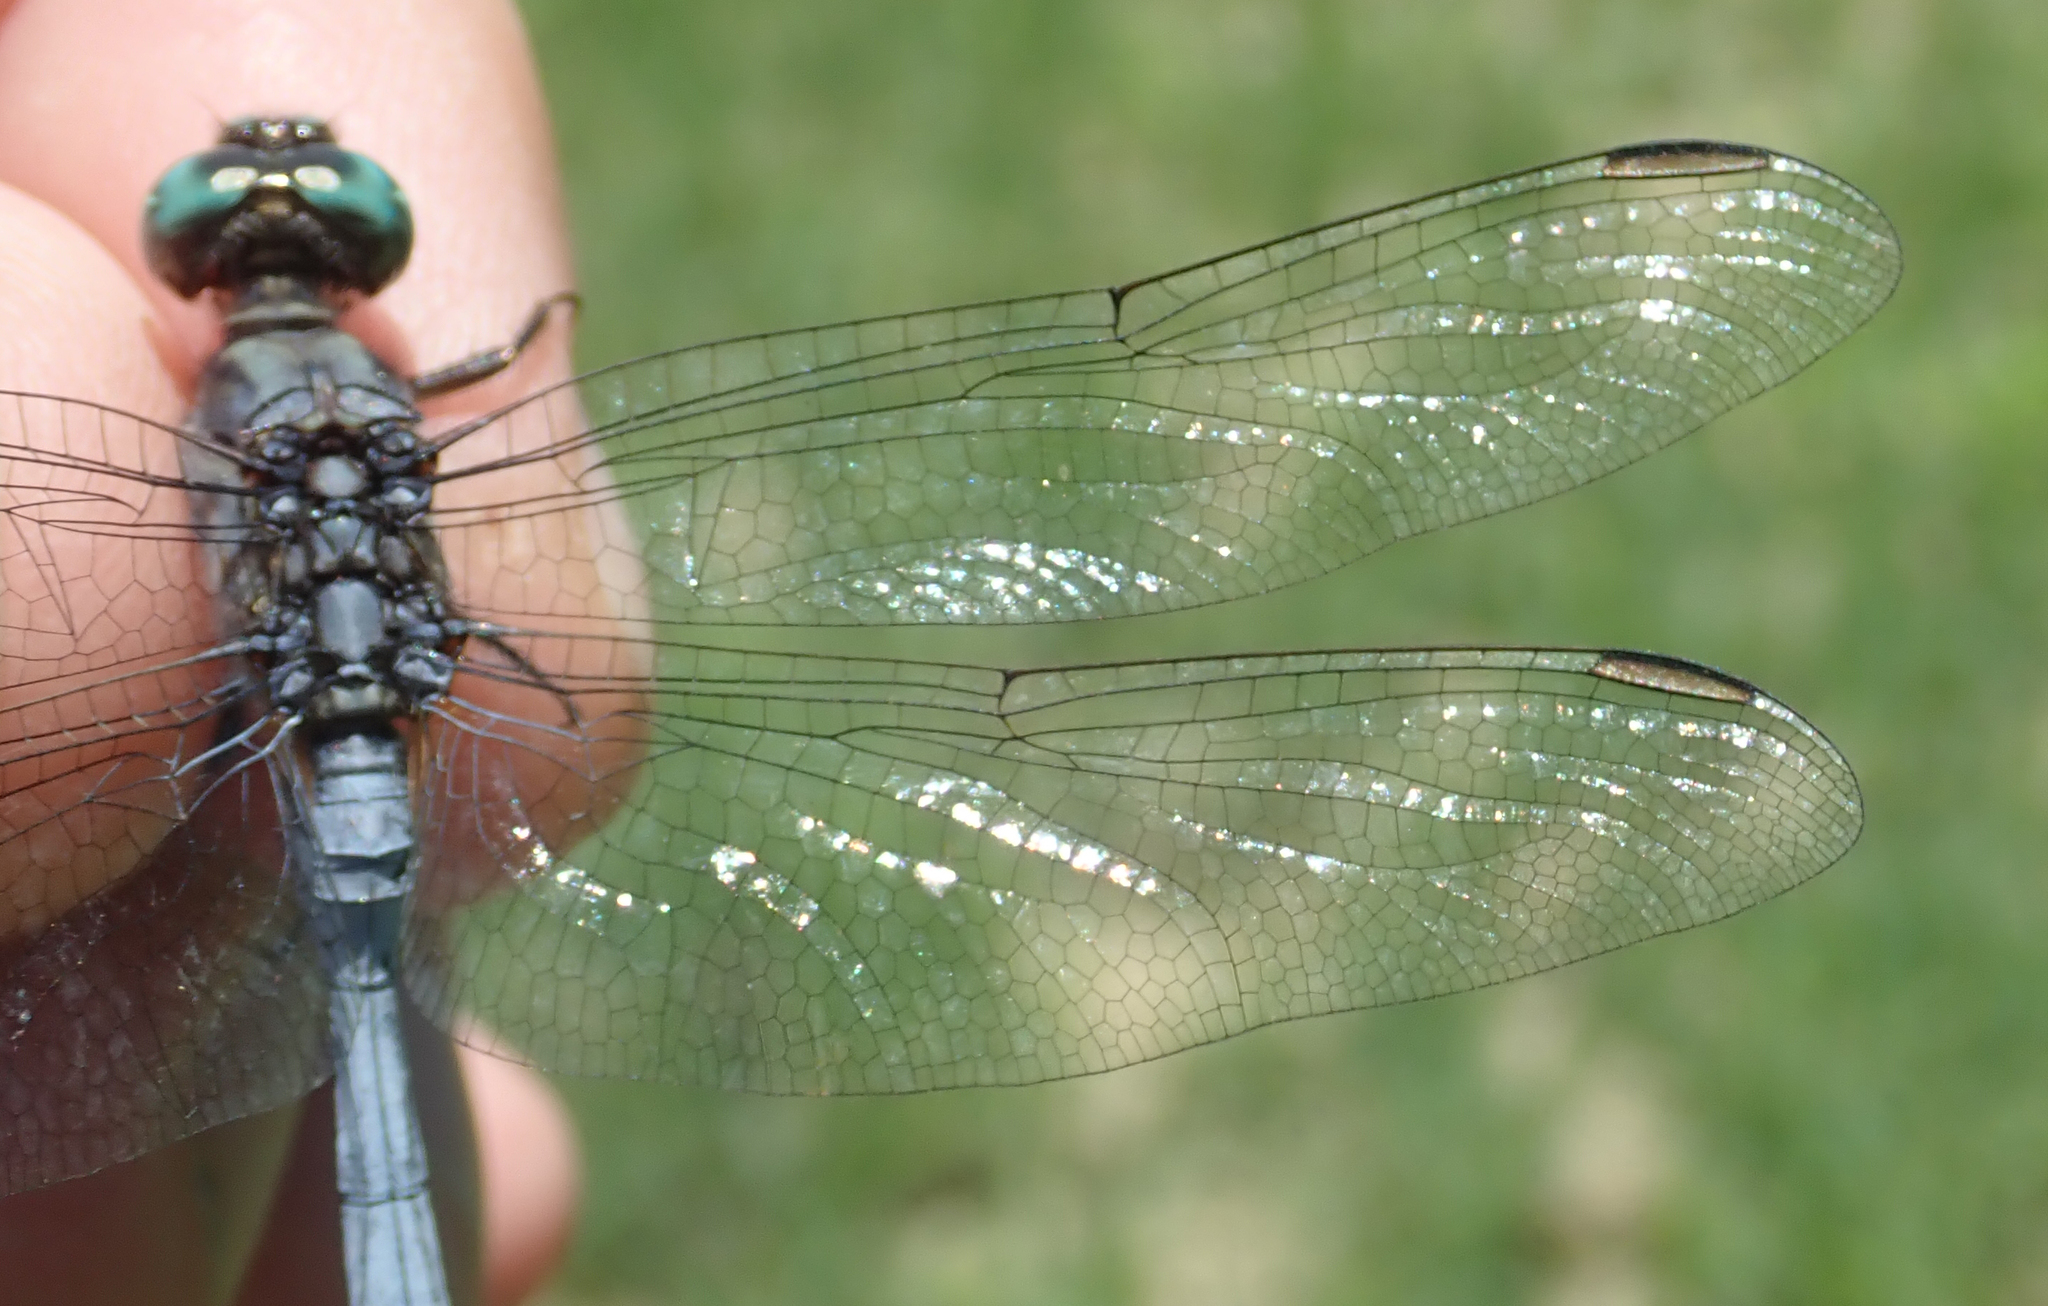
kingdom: Animalia
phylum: Arthropoda
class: Insecta
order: Odonata
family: Libellulidae
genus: Orthetrum
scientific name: Orthetrum stemmale
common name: Bold skimmer
